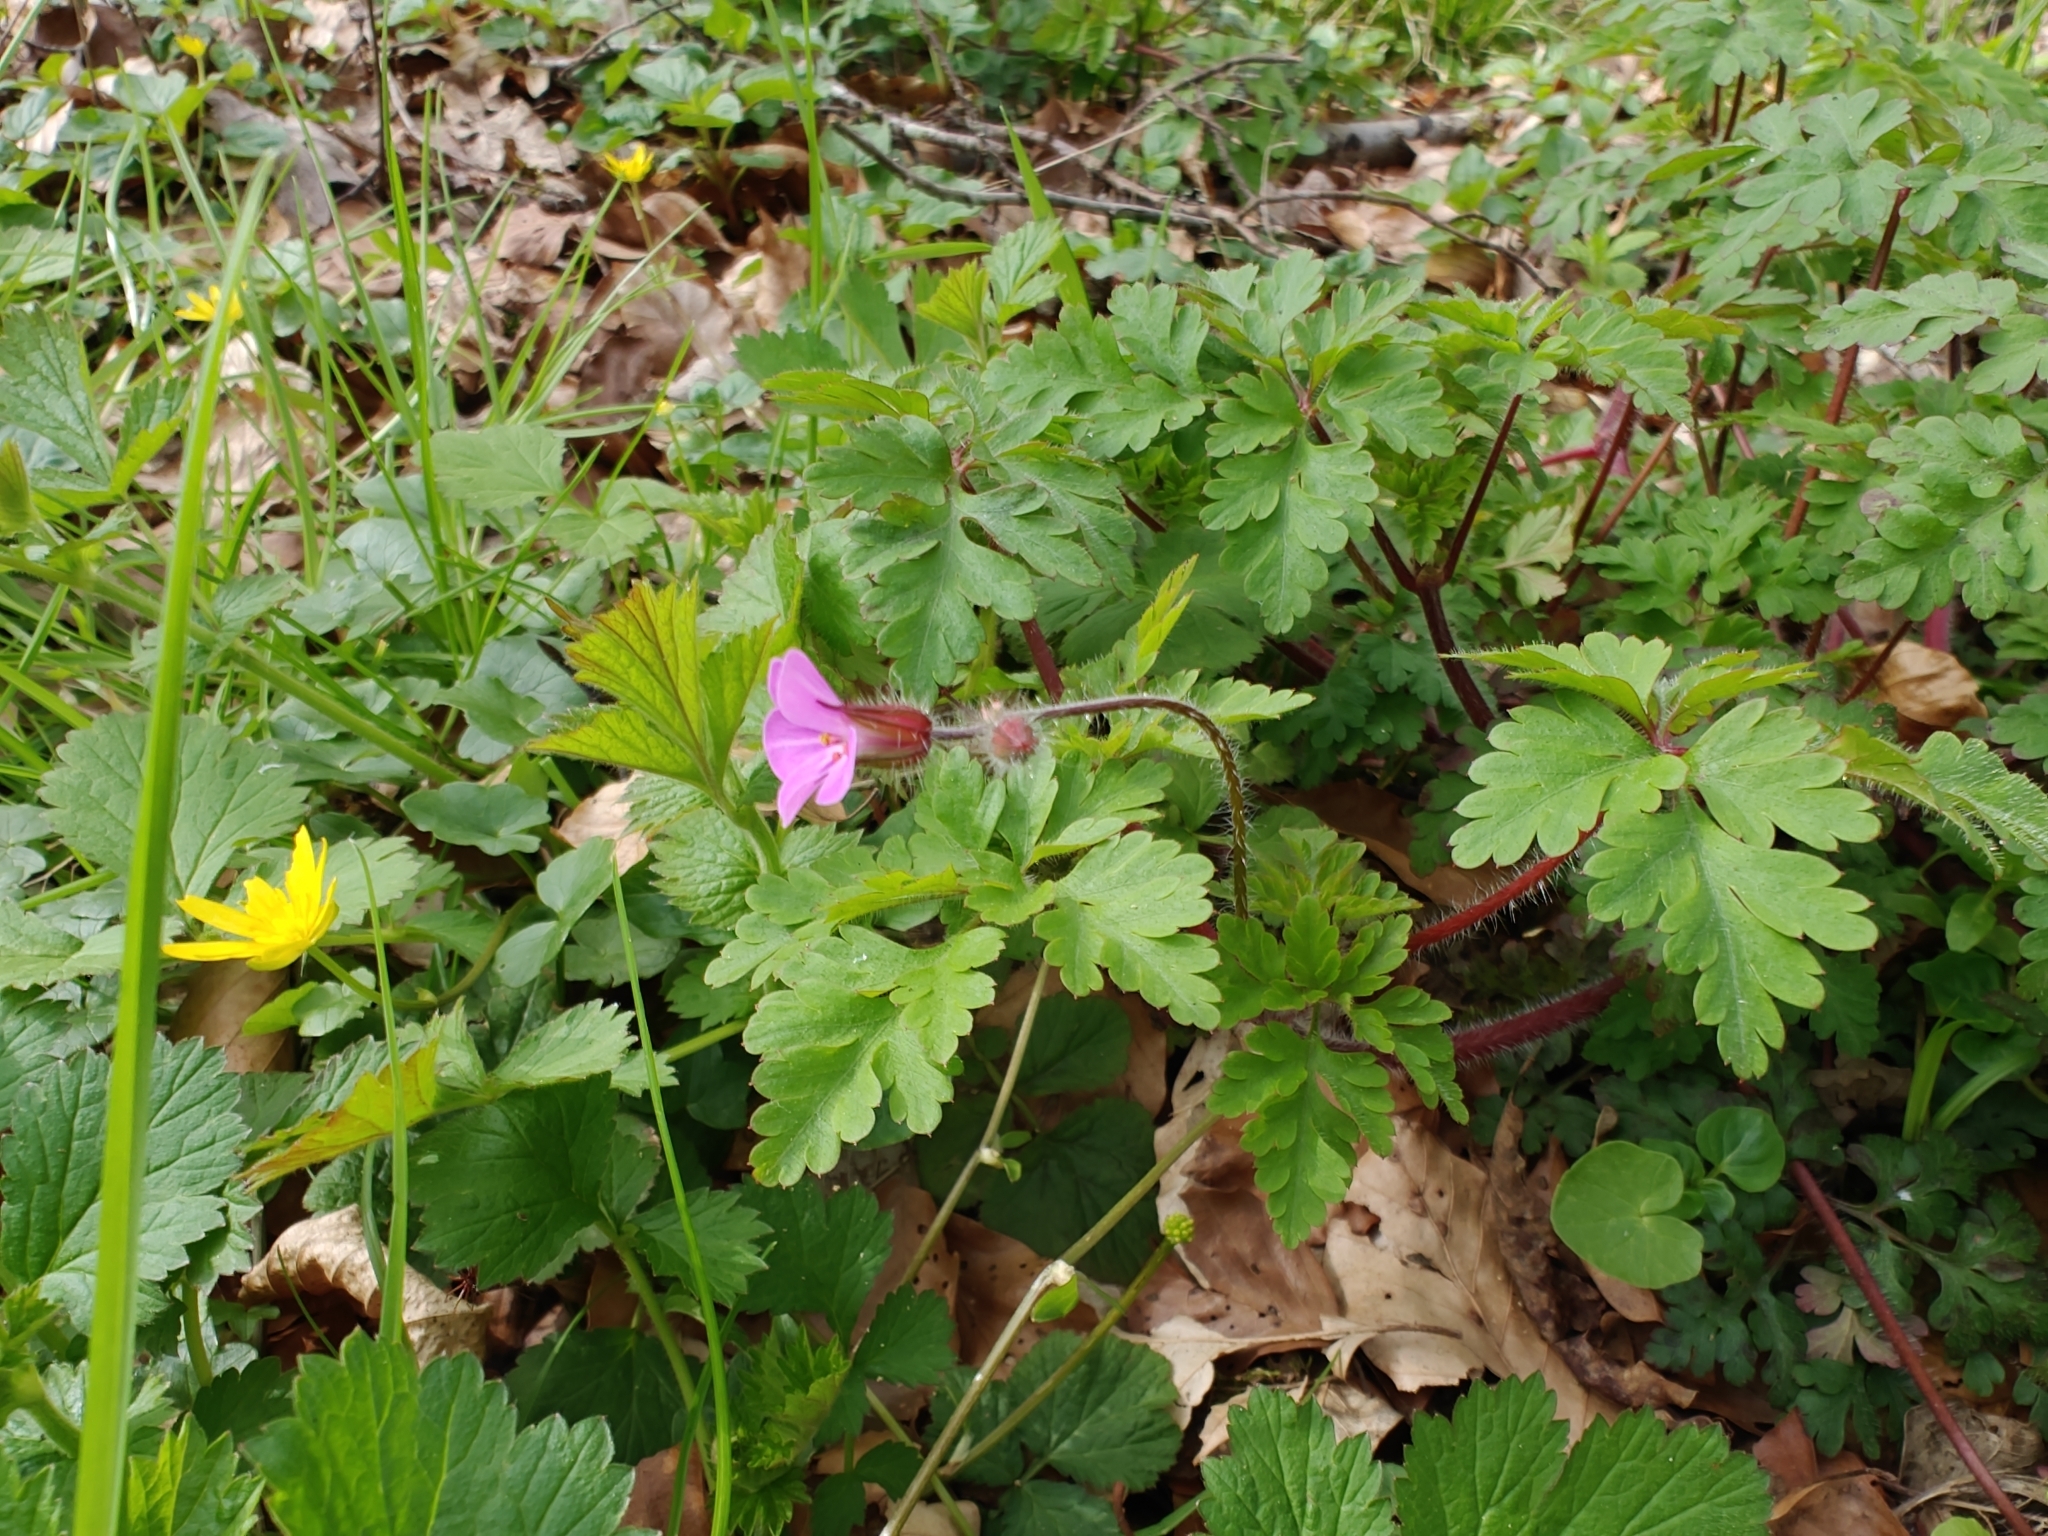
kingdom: Plantae
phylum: Tracheophyta
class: Magnoliopsida
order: Geraniales
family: Geraniaceae
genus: Geranium
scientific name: Geranium robertianum
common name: Herb-robert
